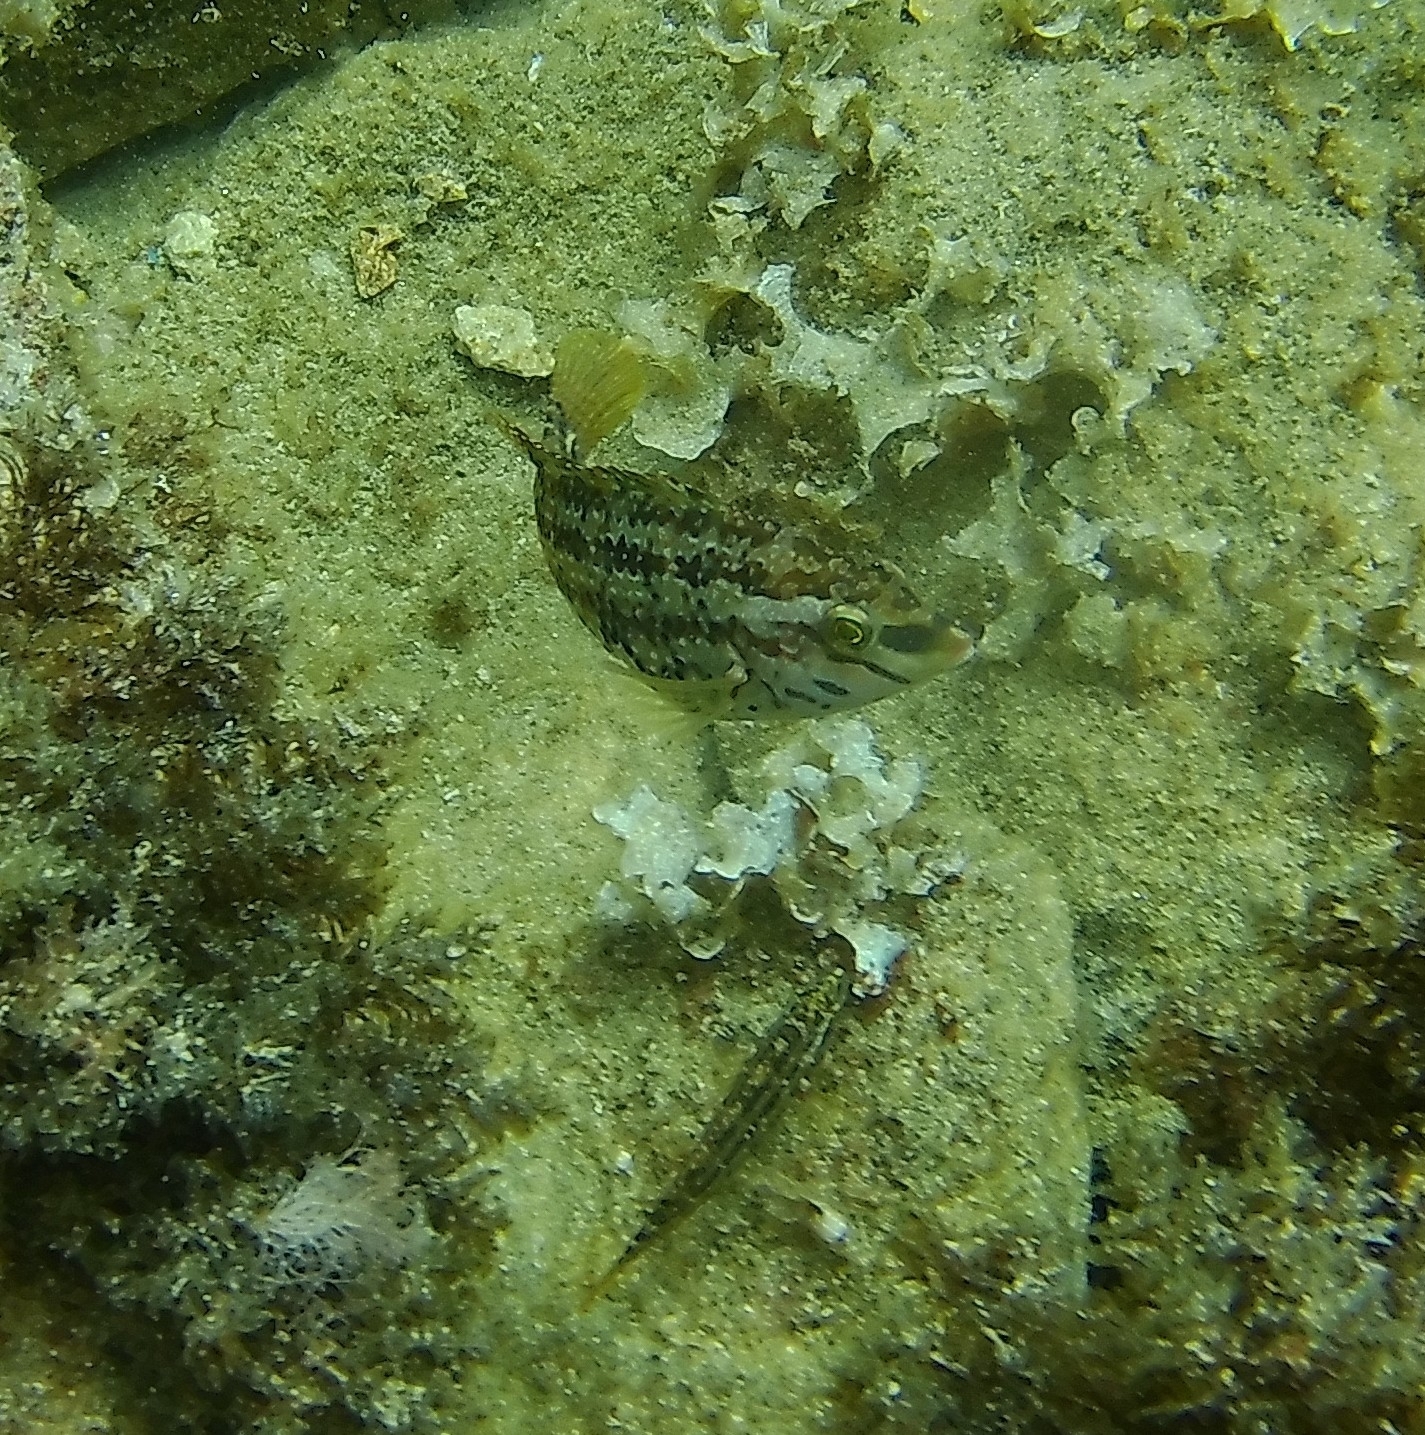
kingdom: Animalia
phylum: Chordata
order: Perciformes
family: Labridae
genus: Symphodus
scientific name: Symphodus roissali
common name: Five-spotted wrasse
